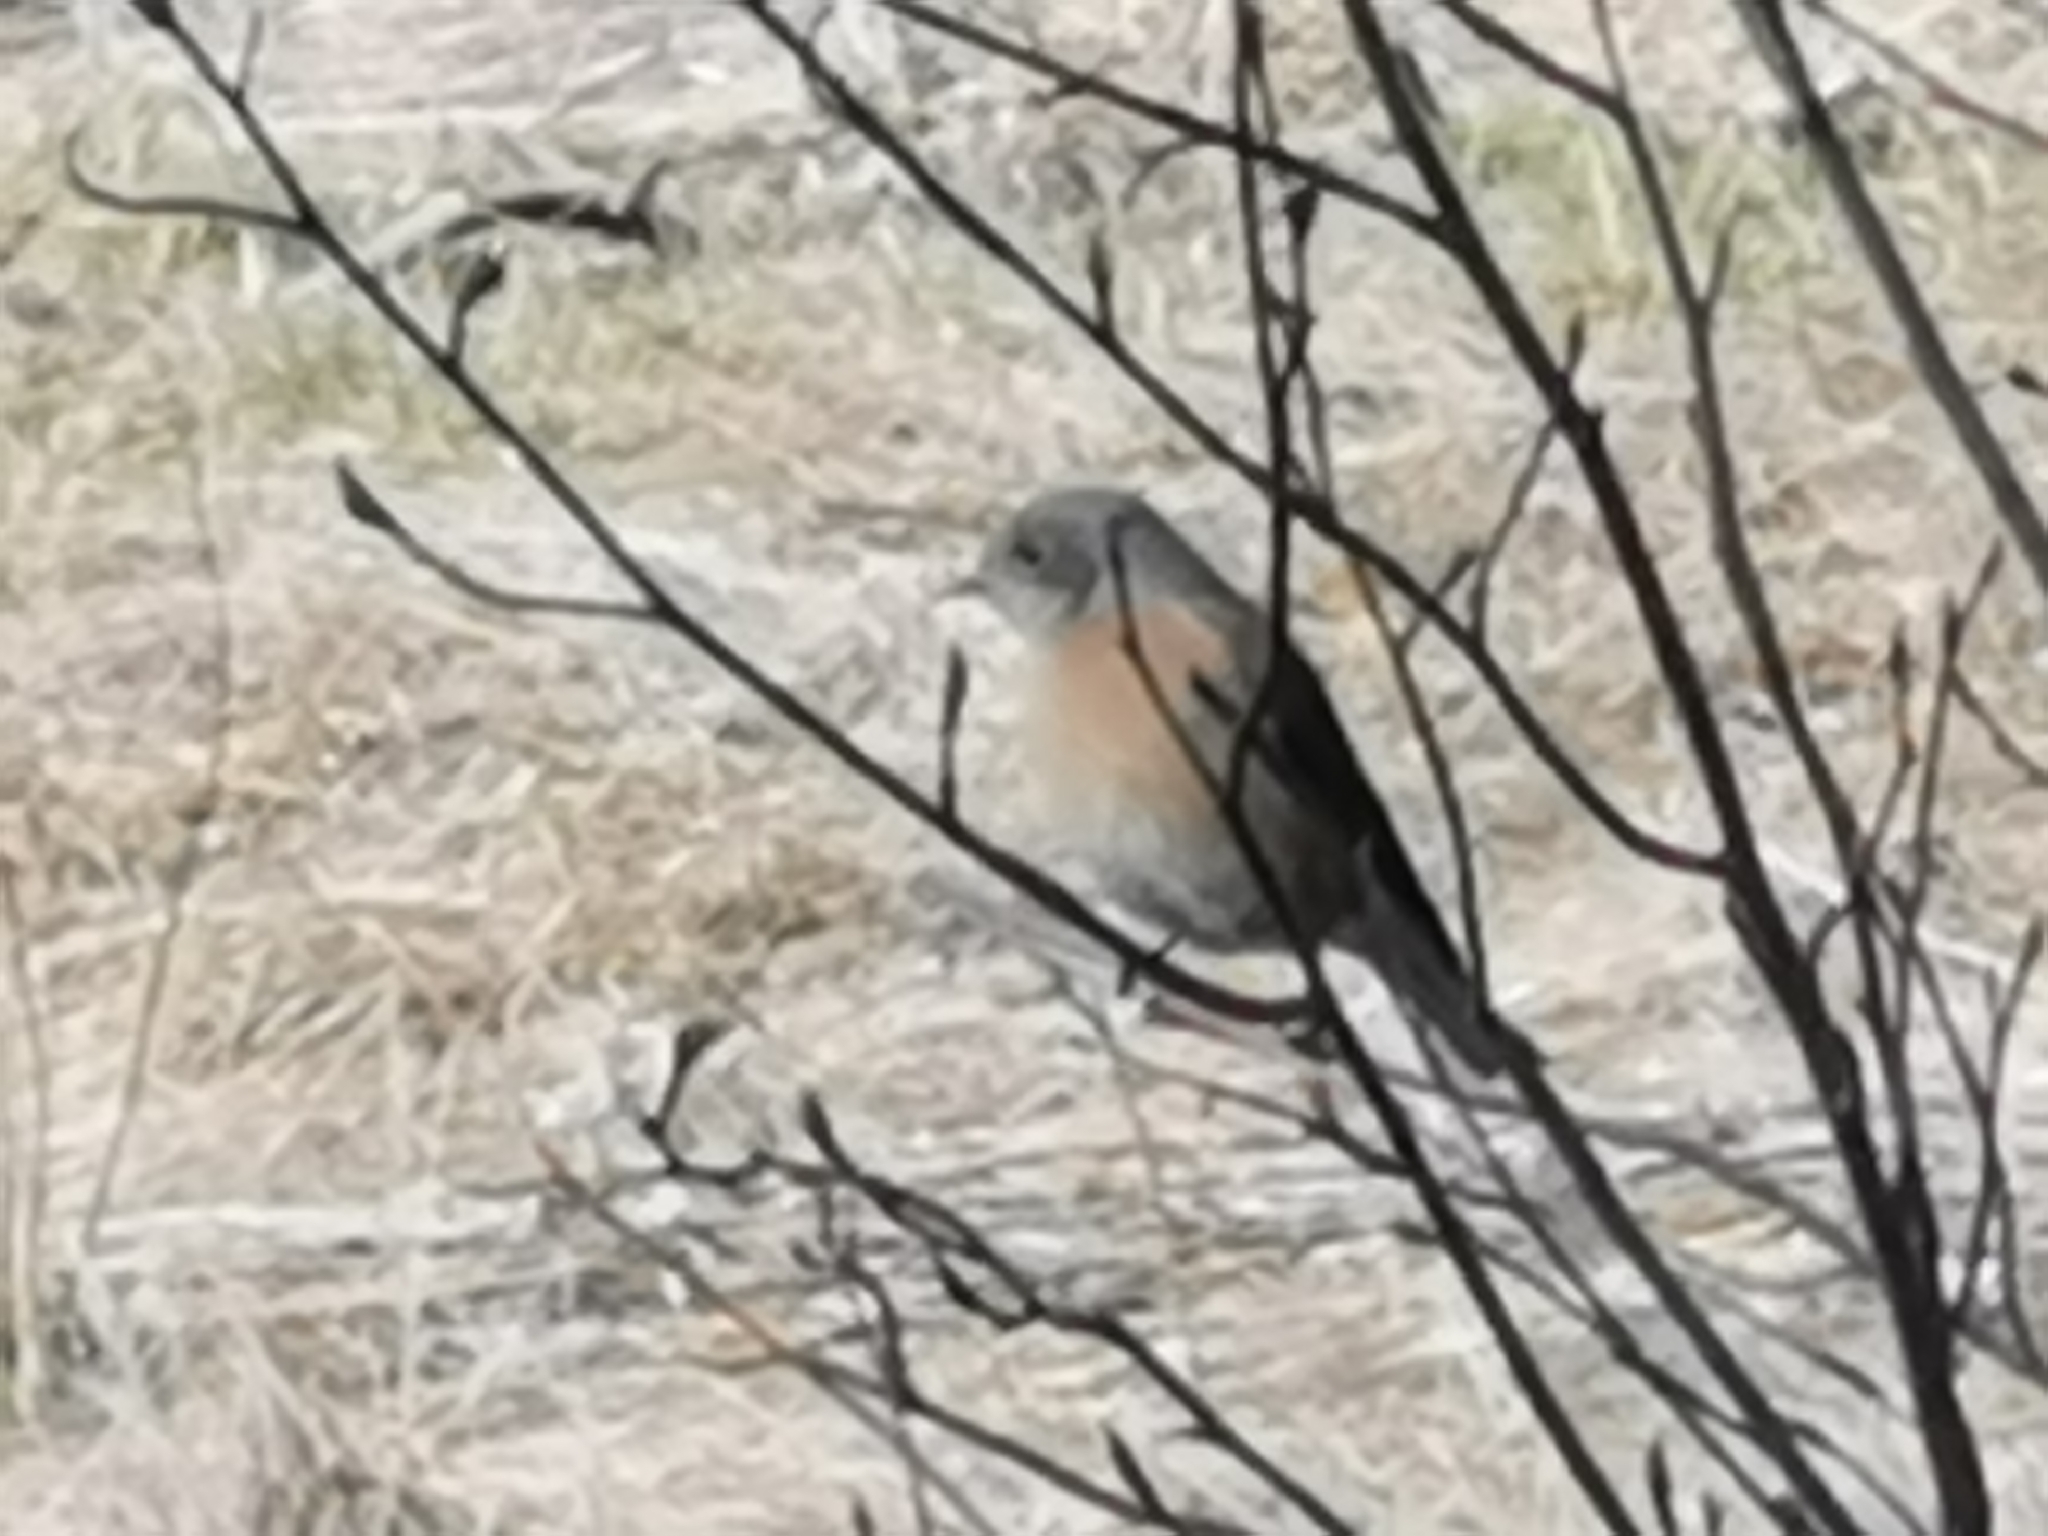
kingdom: Animalia
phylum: Chordata
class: Aves
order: Passeriformes
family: Turdidae
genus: Sialia
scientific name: Sialia mexicana
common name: Western bluebird
